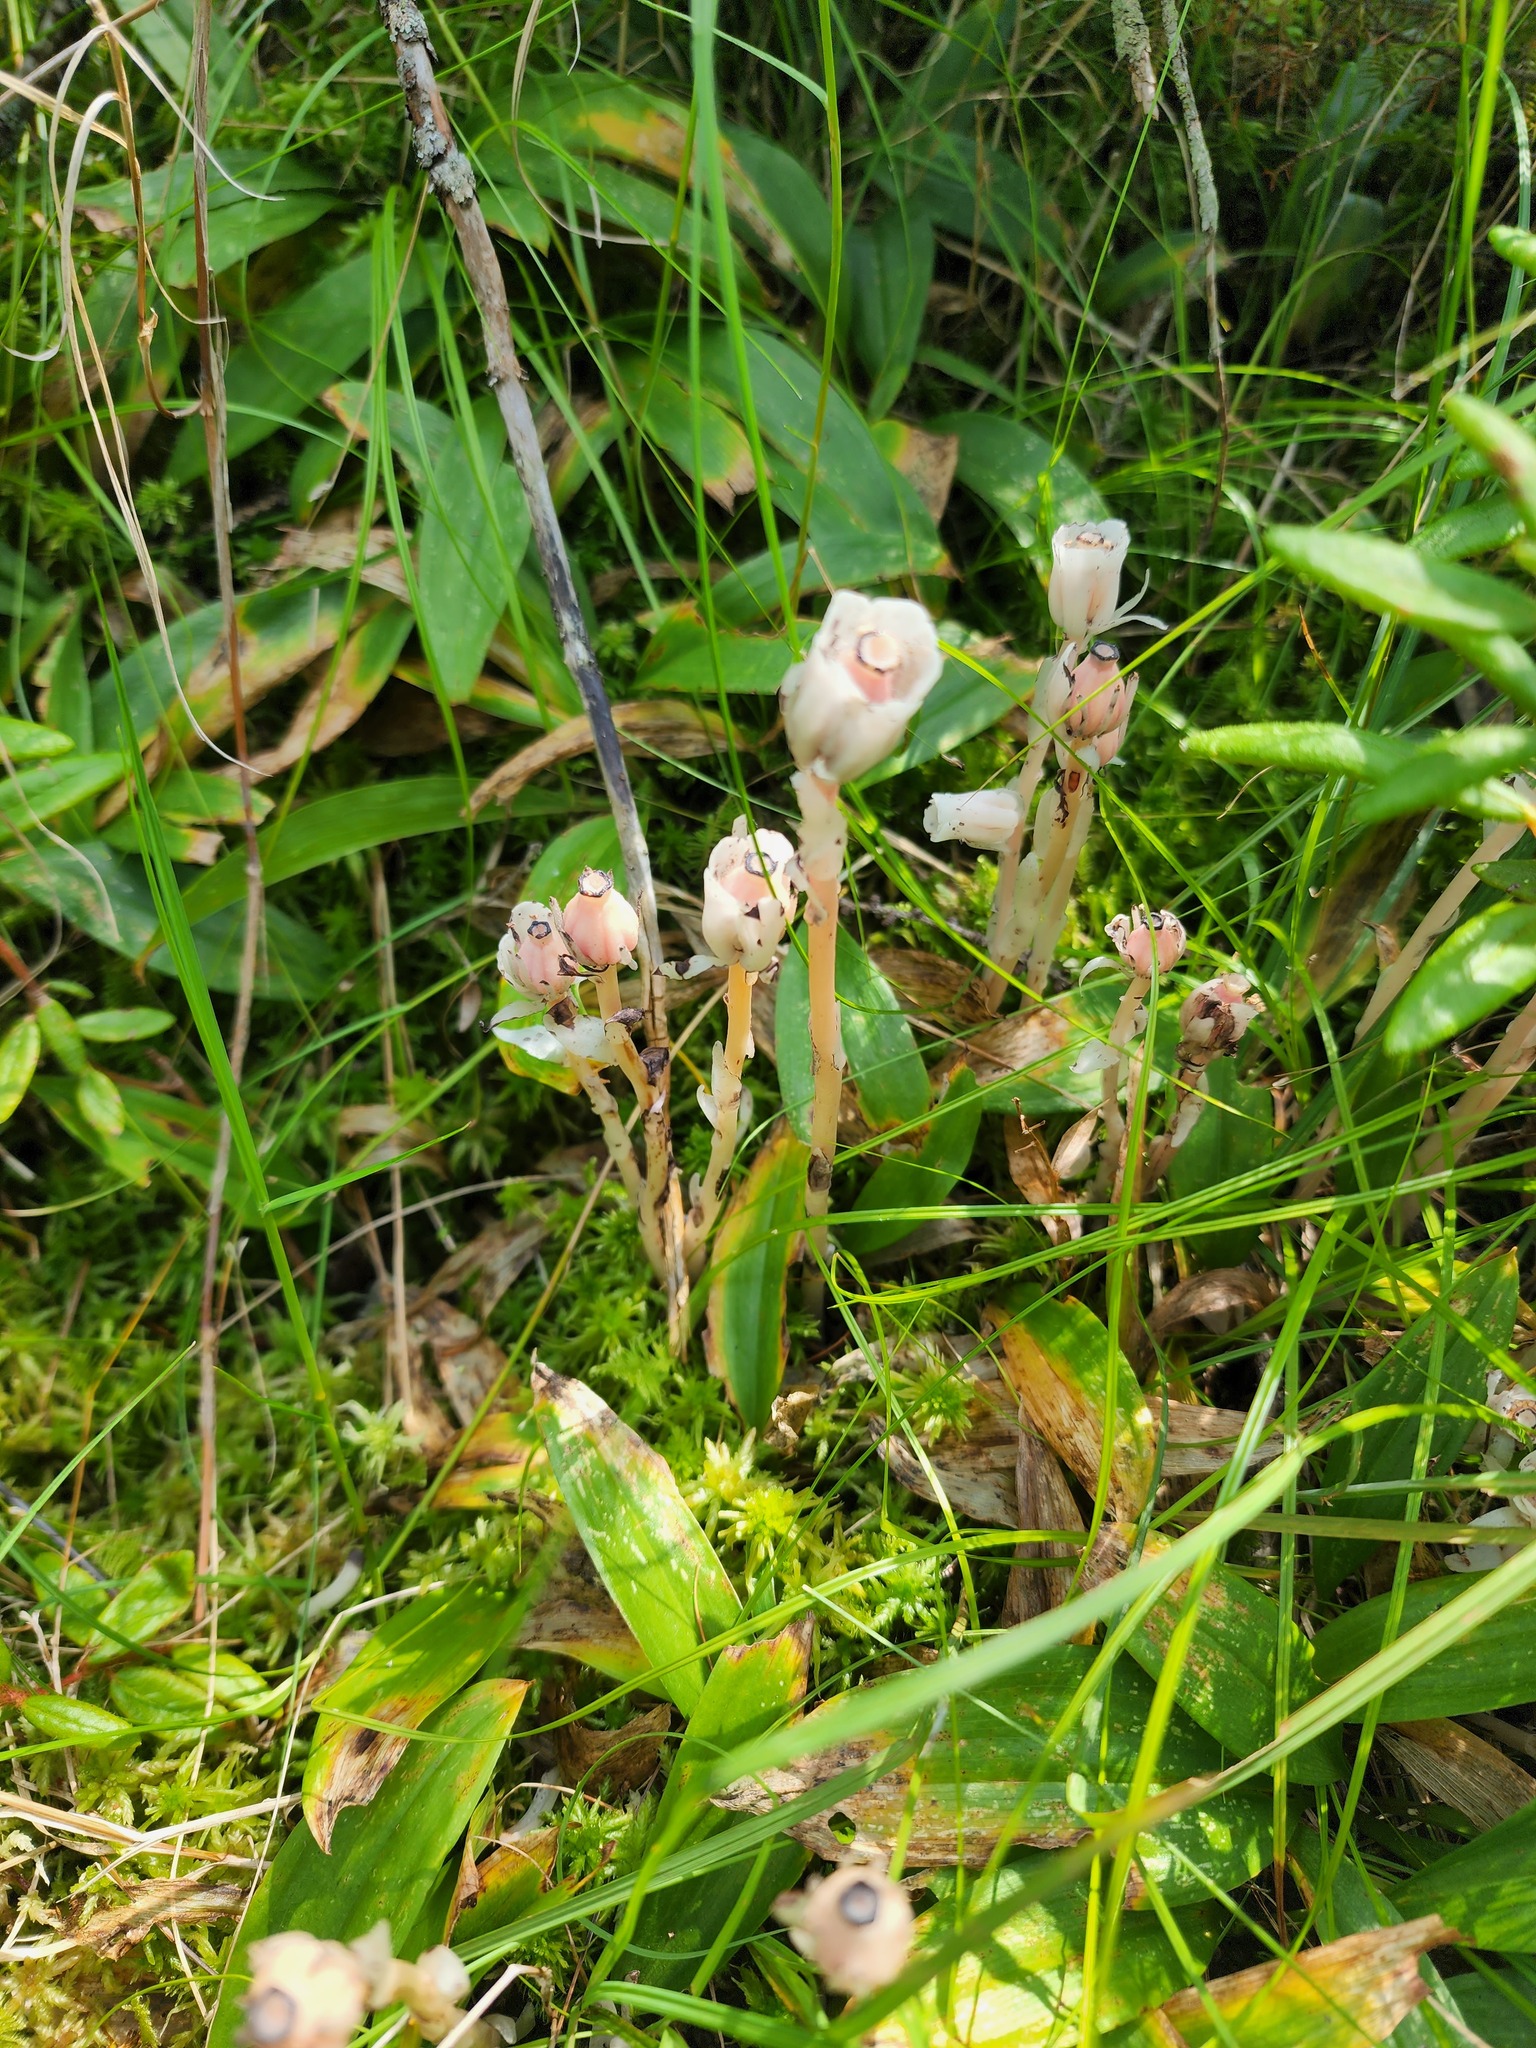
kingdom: Plantae
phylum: Tracheophyta
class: Magnoliopsida
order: Ericales
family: Ericaceae
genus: Monotropa
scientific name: Monotropa uniflora
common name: Convulsion root
